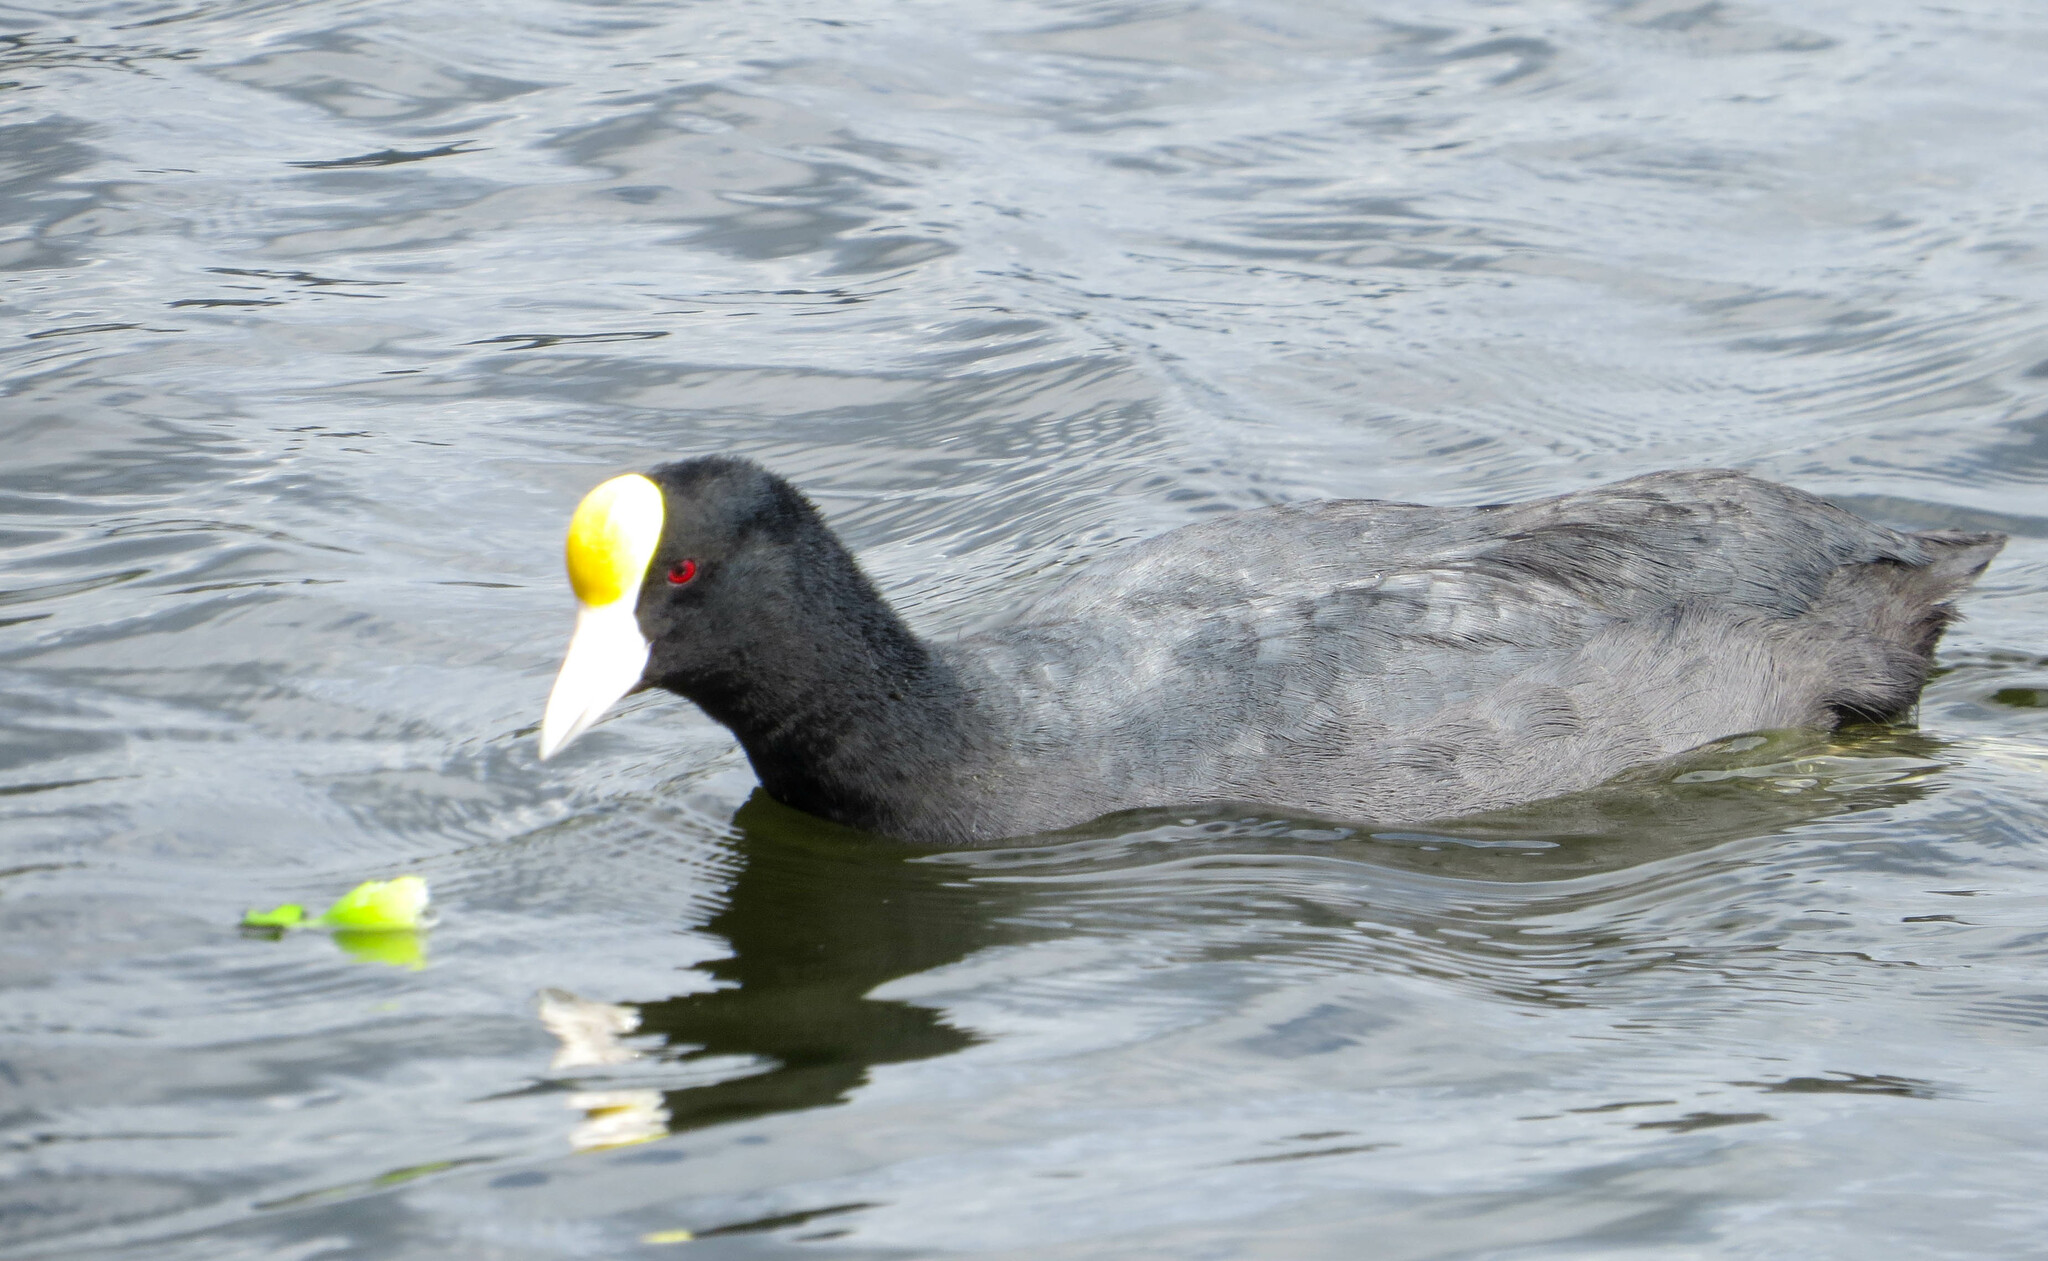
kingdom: Animalia
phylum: Chordata
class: Aves
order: Gruiformes
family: Rallidae
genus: Fulica
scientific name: Fulica ardesiaca
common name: Andean coot
